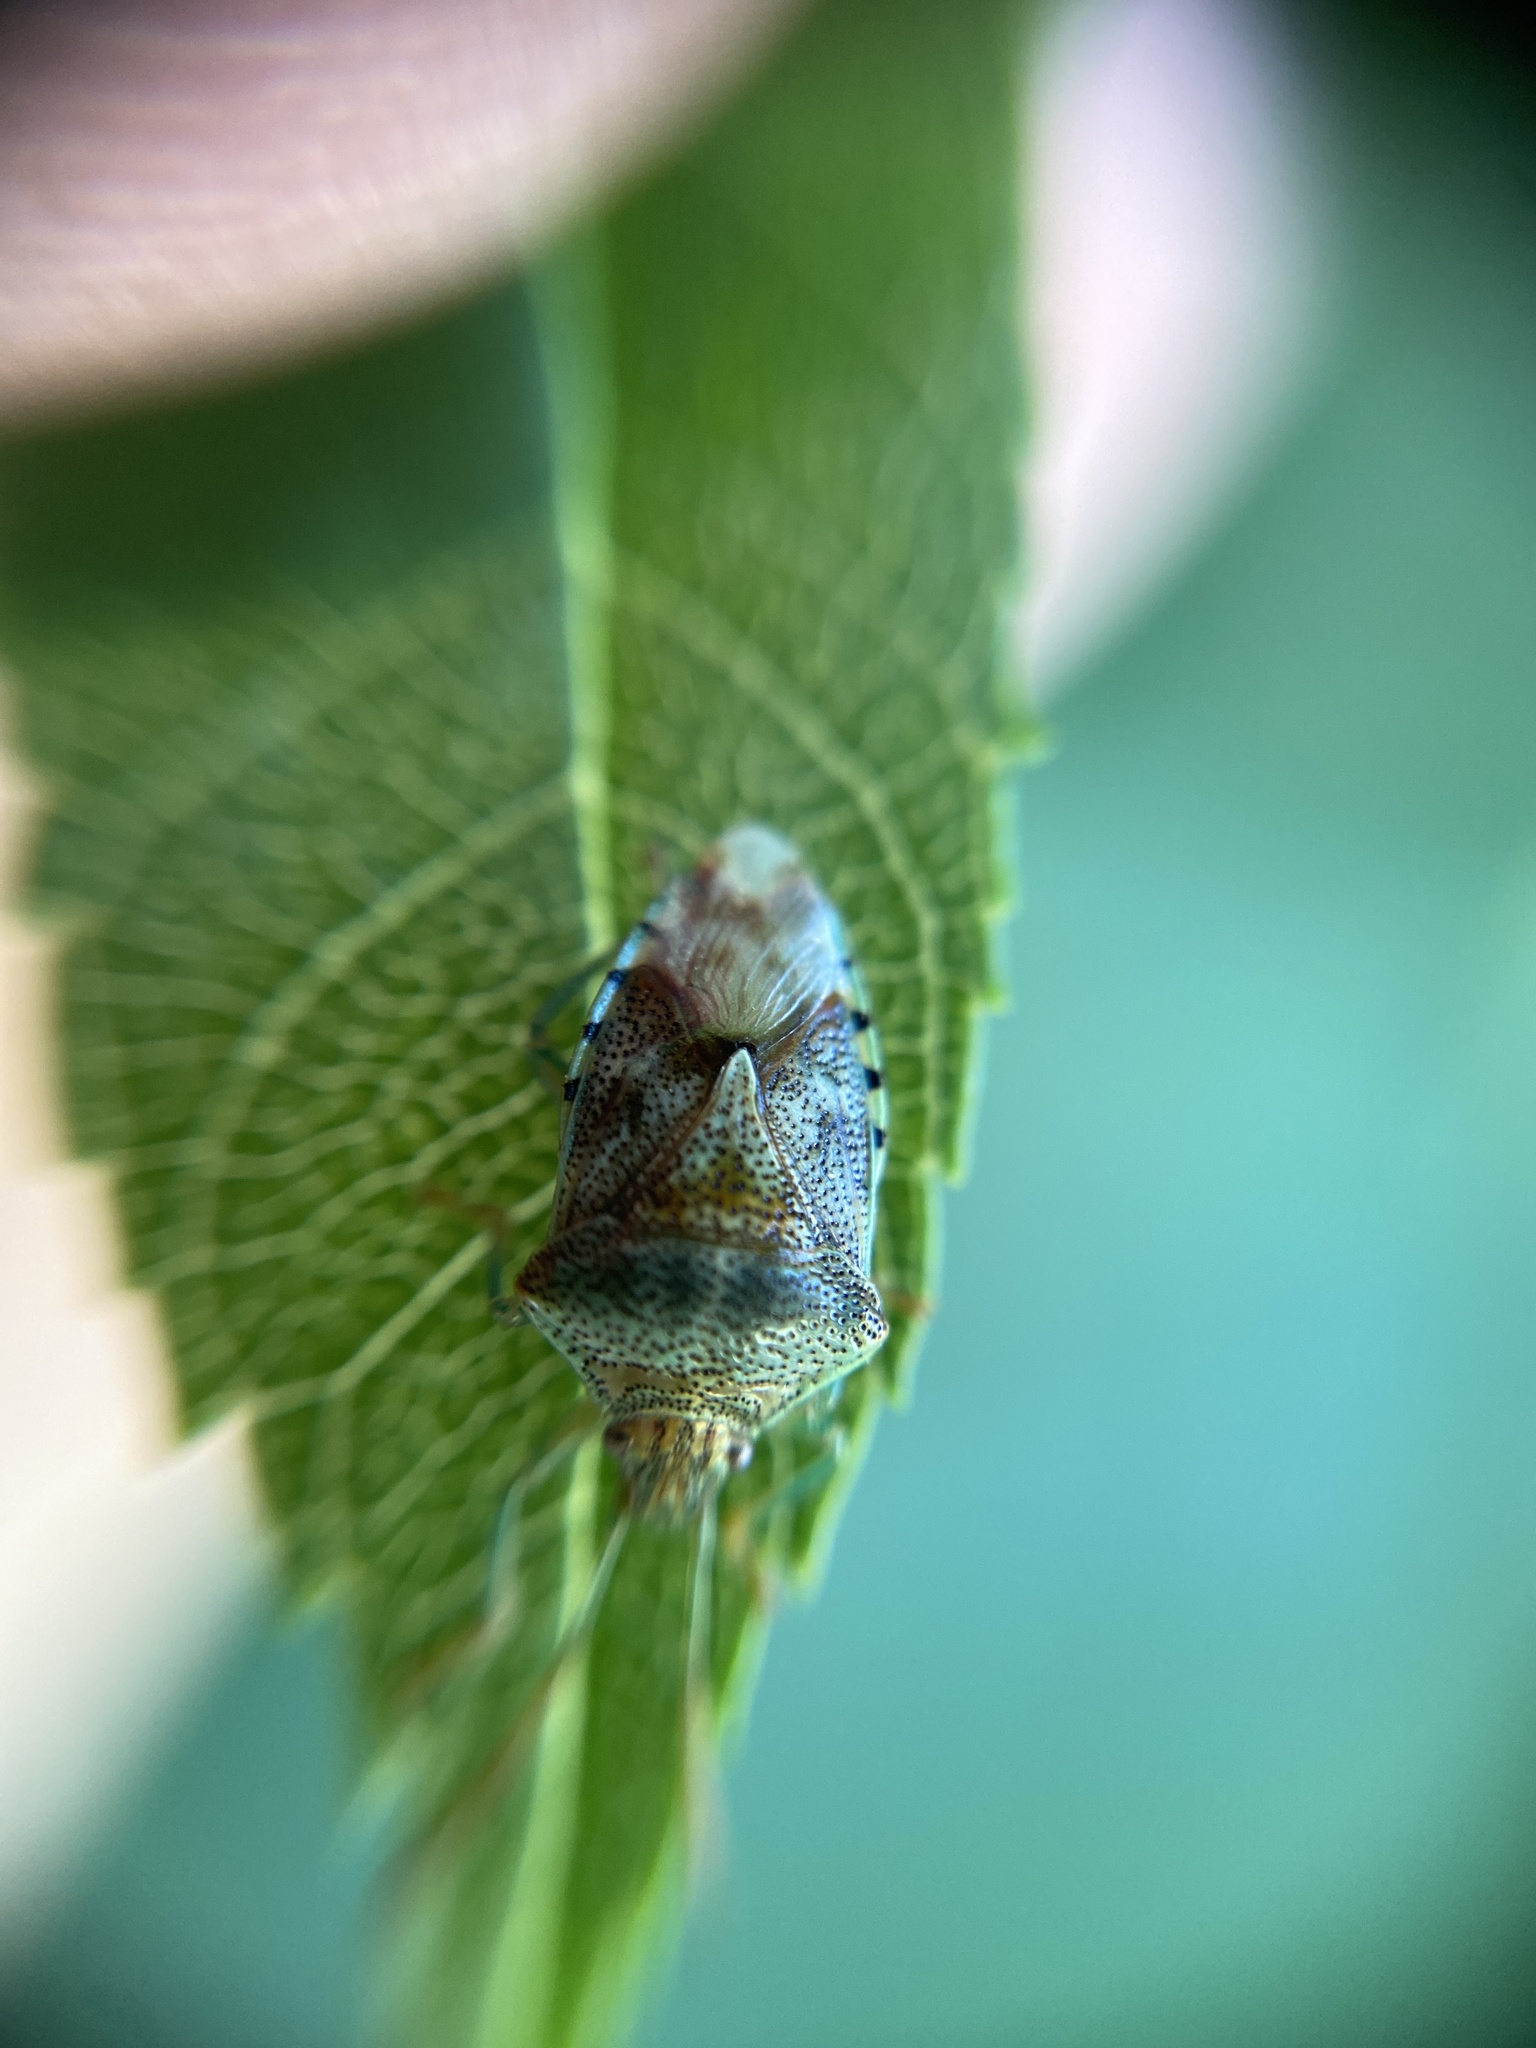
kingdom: Animalia
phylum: Arthropoda
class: Insecta
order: Hemiptera
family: Acanthosomatidae
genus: Elasmucha
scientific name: Elasmucha grisea
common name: Parent bug
